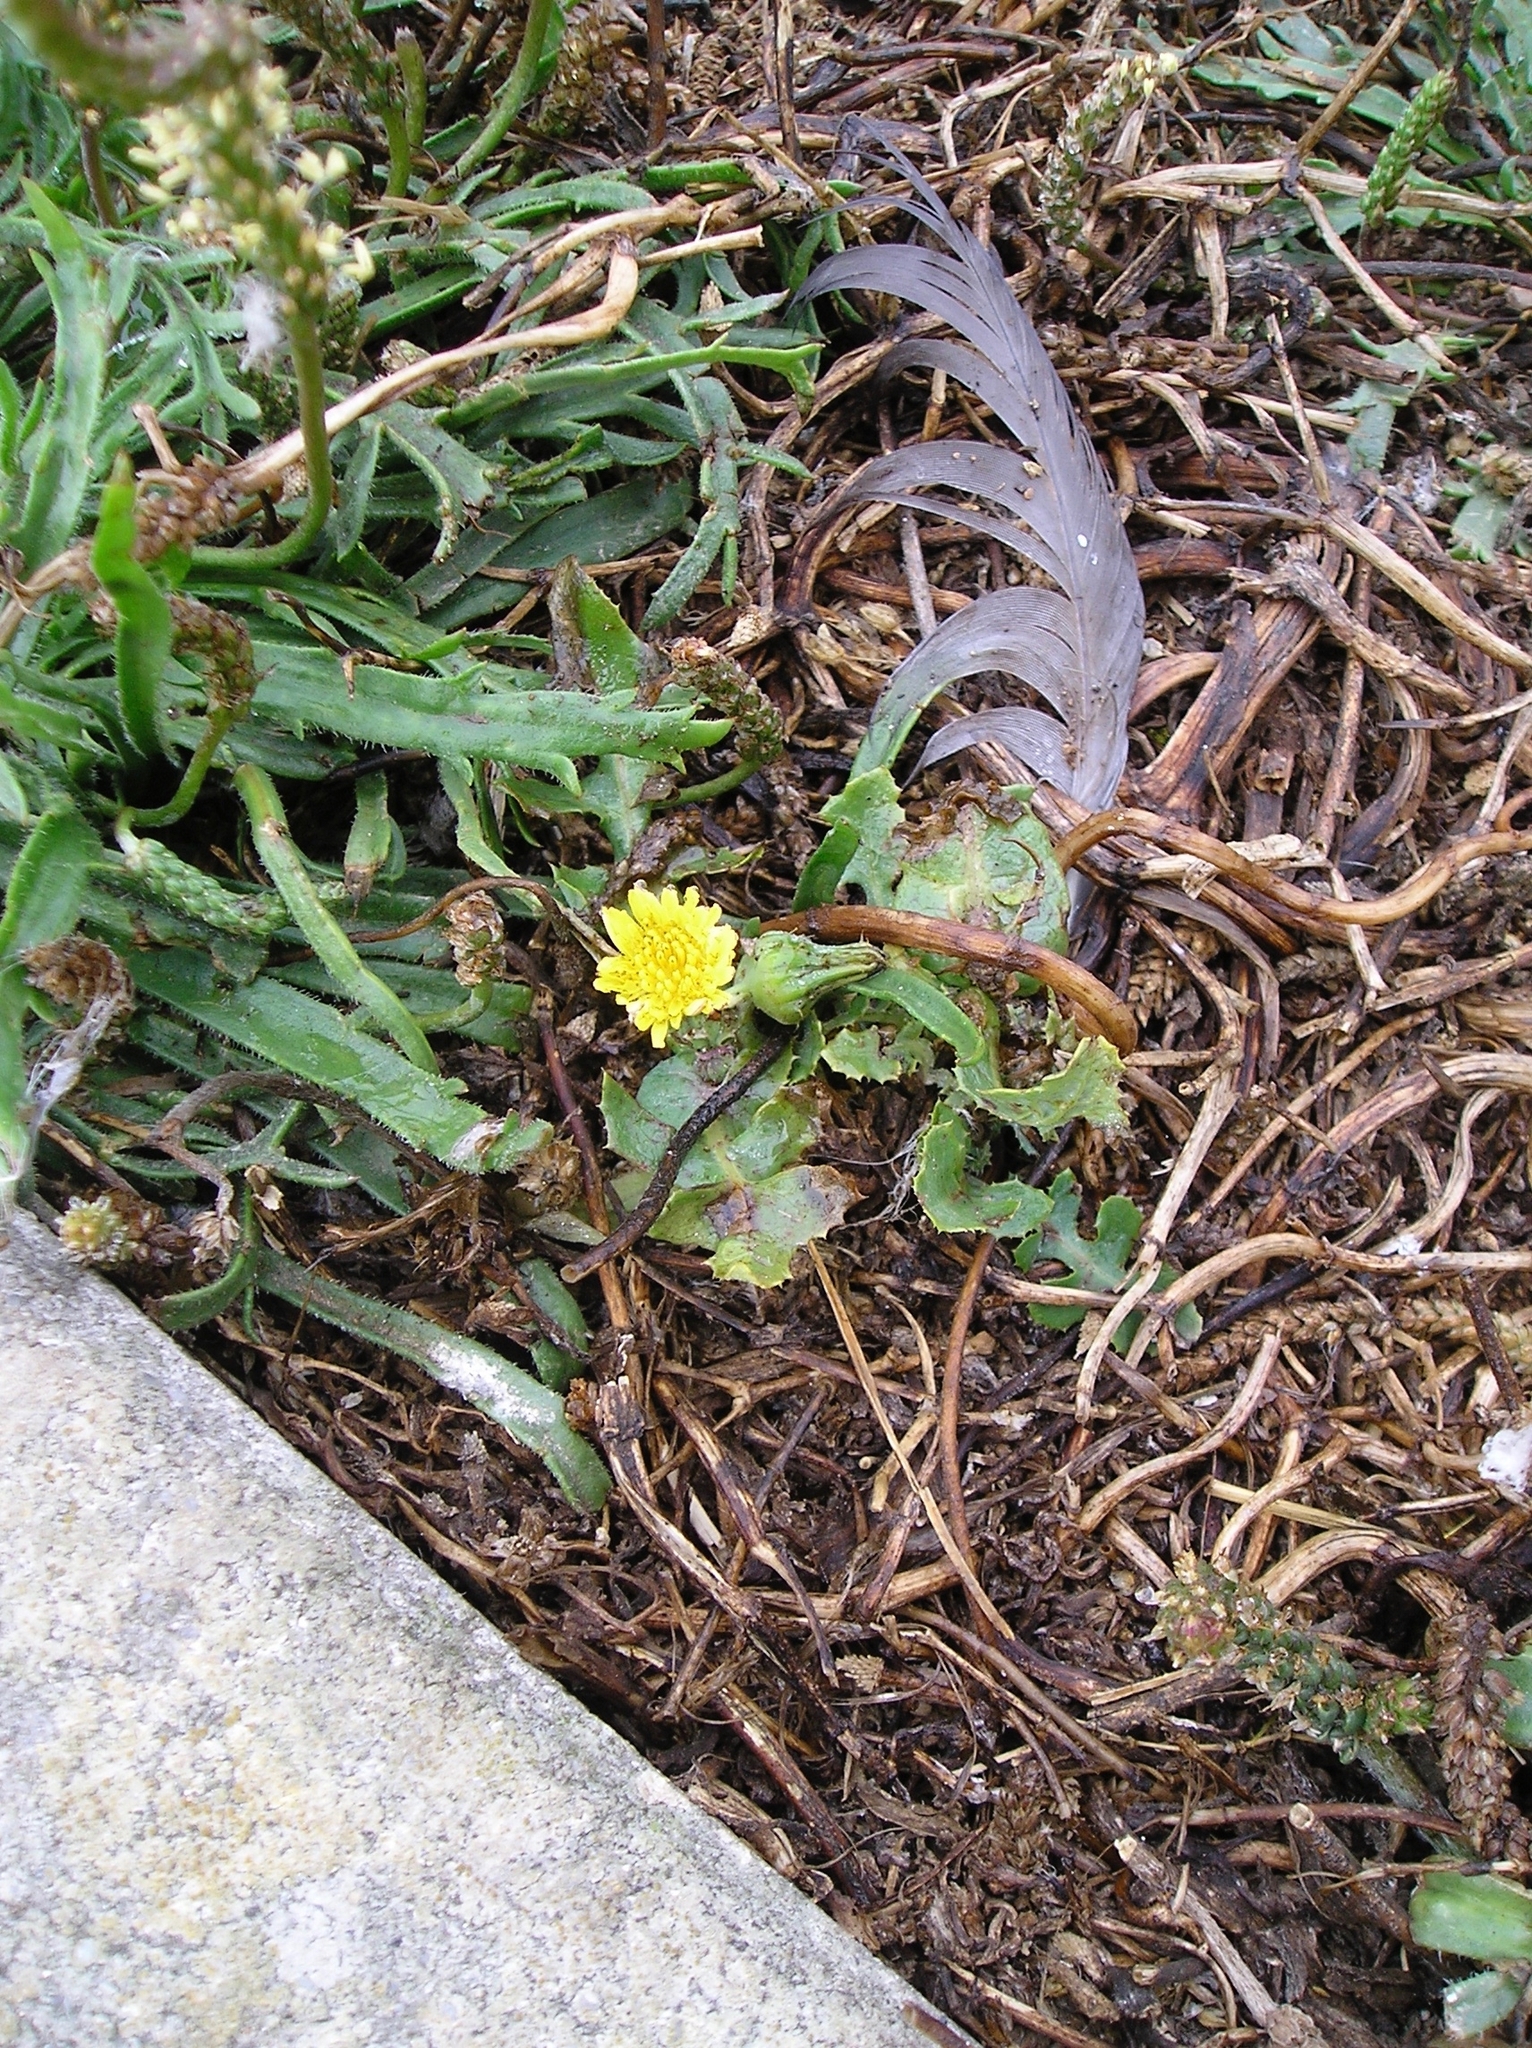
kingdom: Plantae
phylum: Tracheophyta
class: Magnoliopsida
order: Asterales
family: Asteraceae
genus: Sonchus
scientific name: Sonchus oleraceus
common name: Common sowthistle
